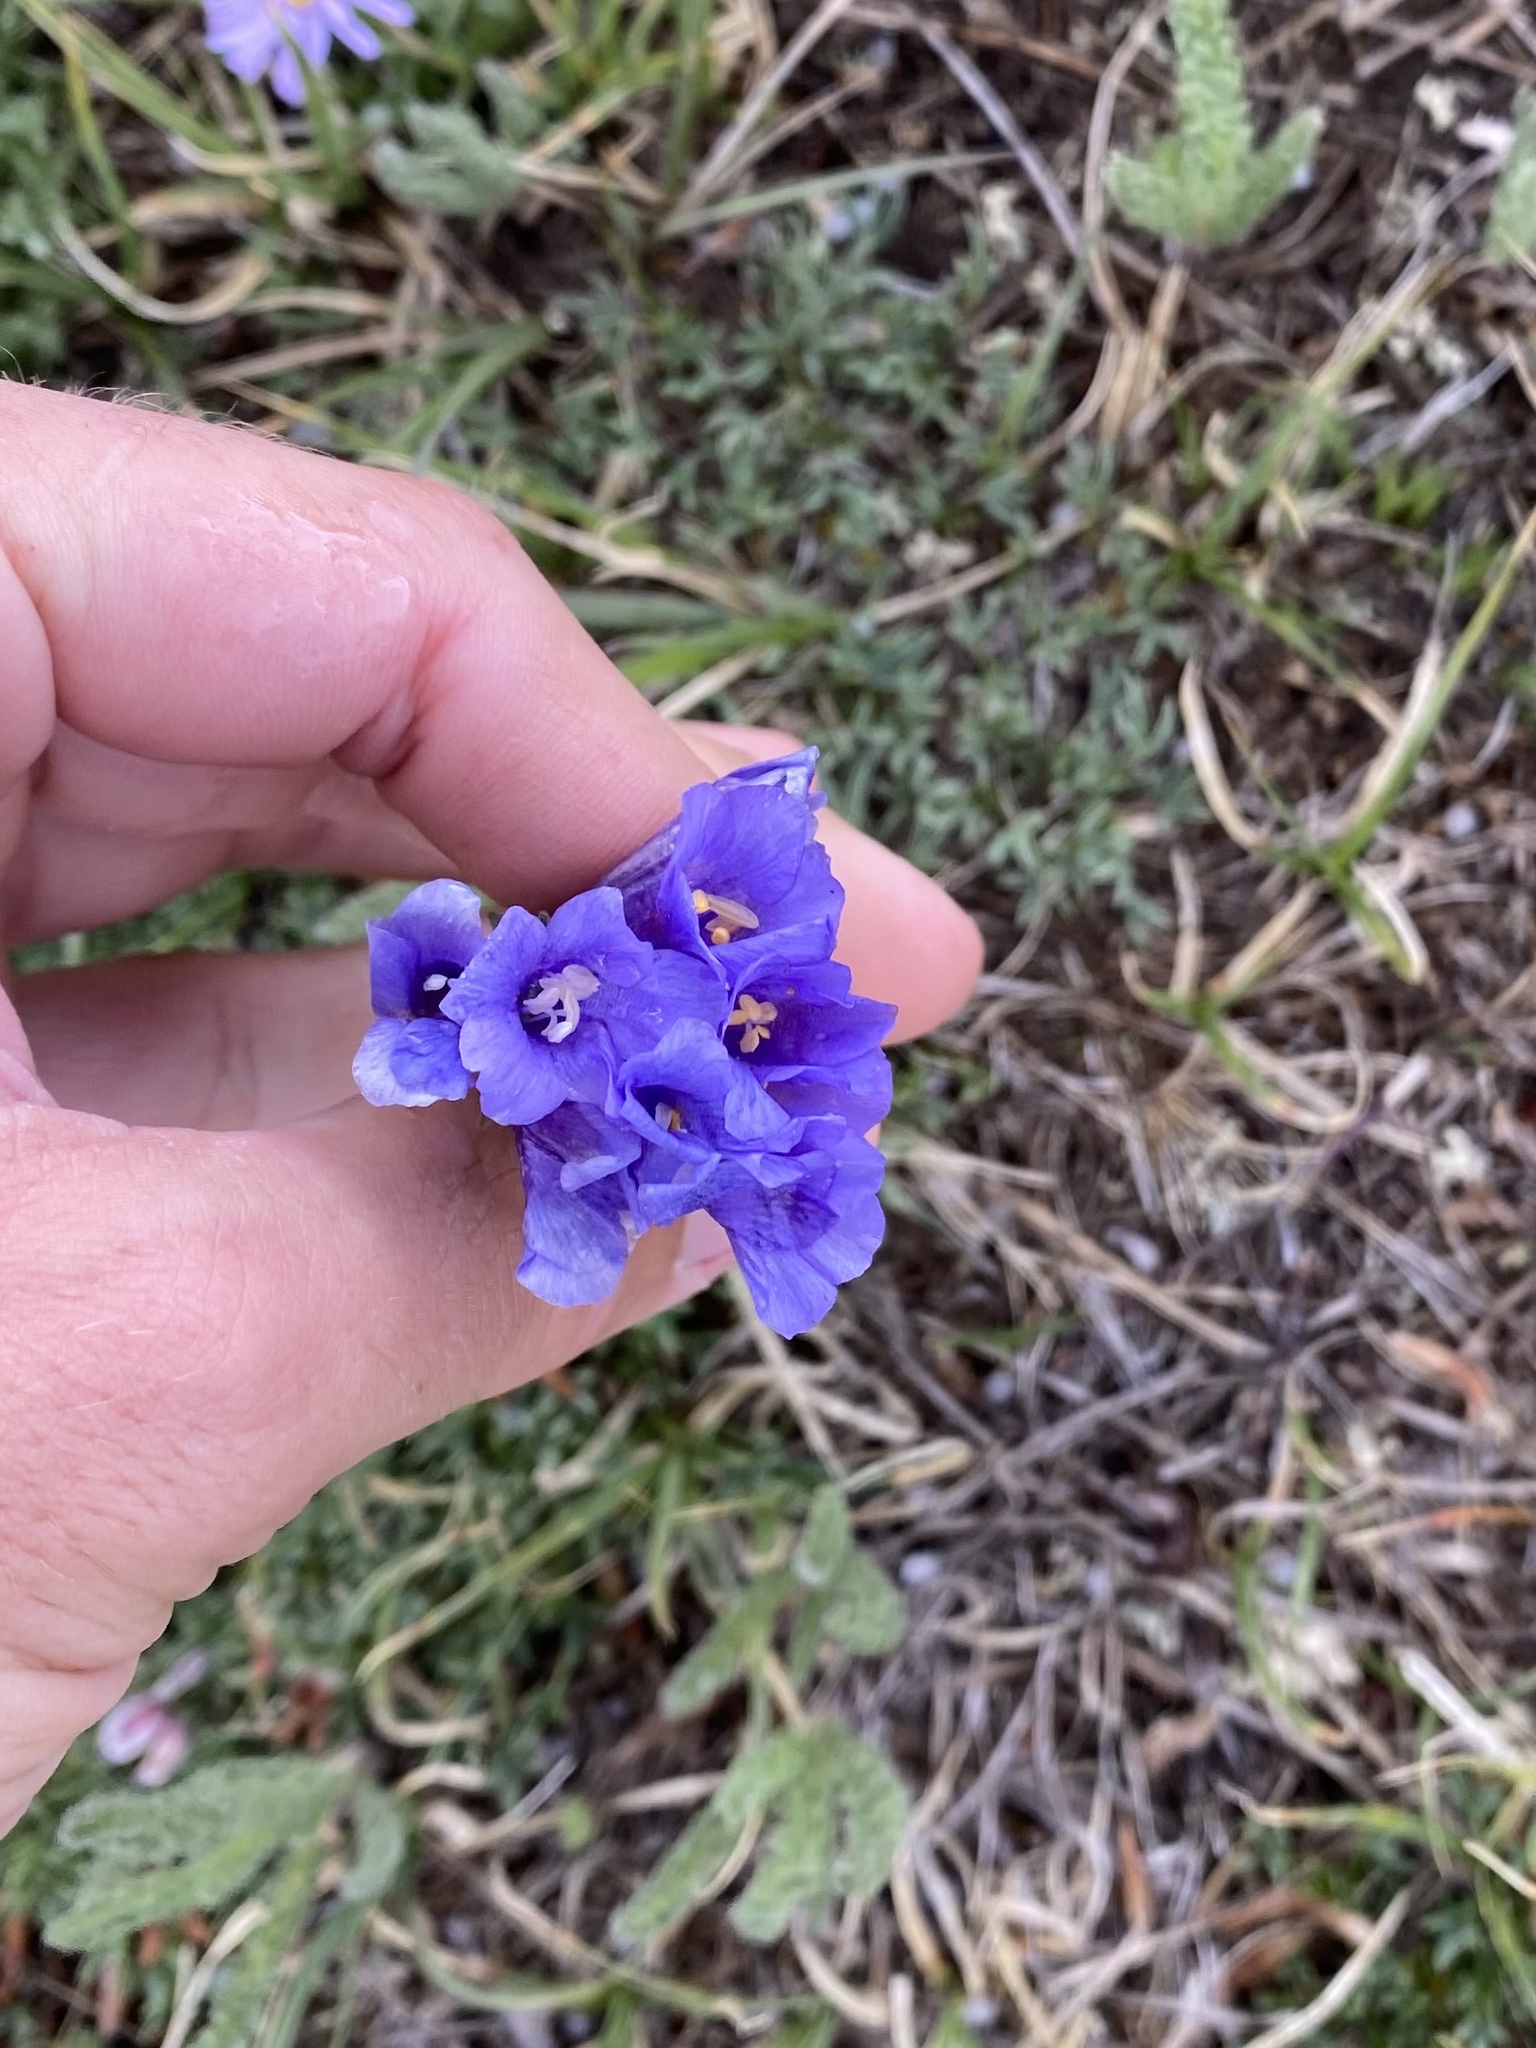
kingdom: Plantae
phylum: Tracheophyta
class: Magnoliopsida
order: Ericales
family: Polemoniaceae
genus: Polemonium
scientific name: Polemonium viscosum
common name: Skunk jacob's-ladder
